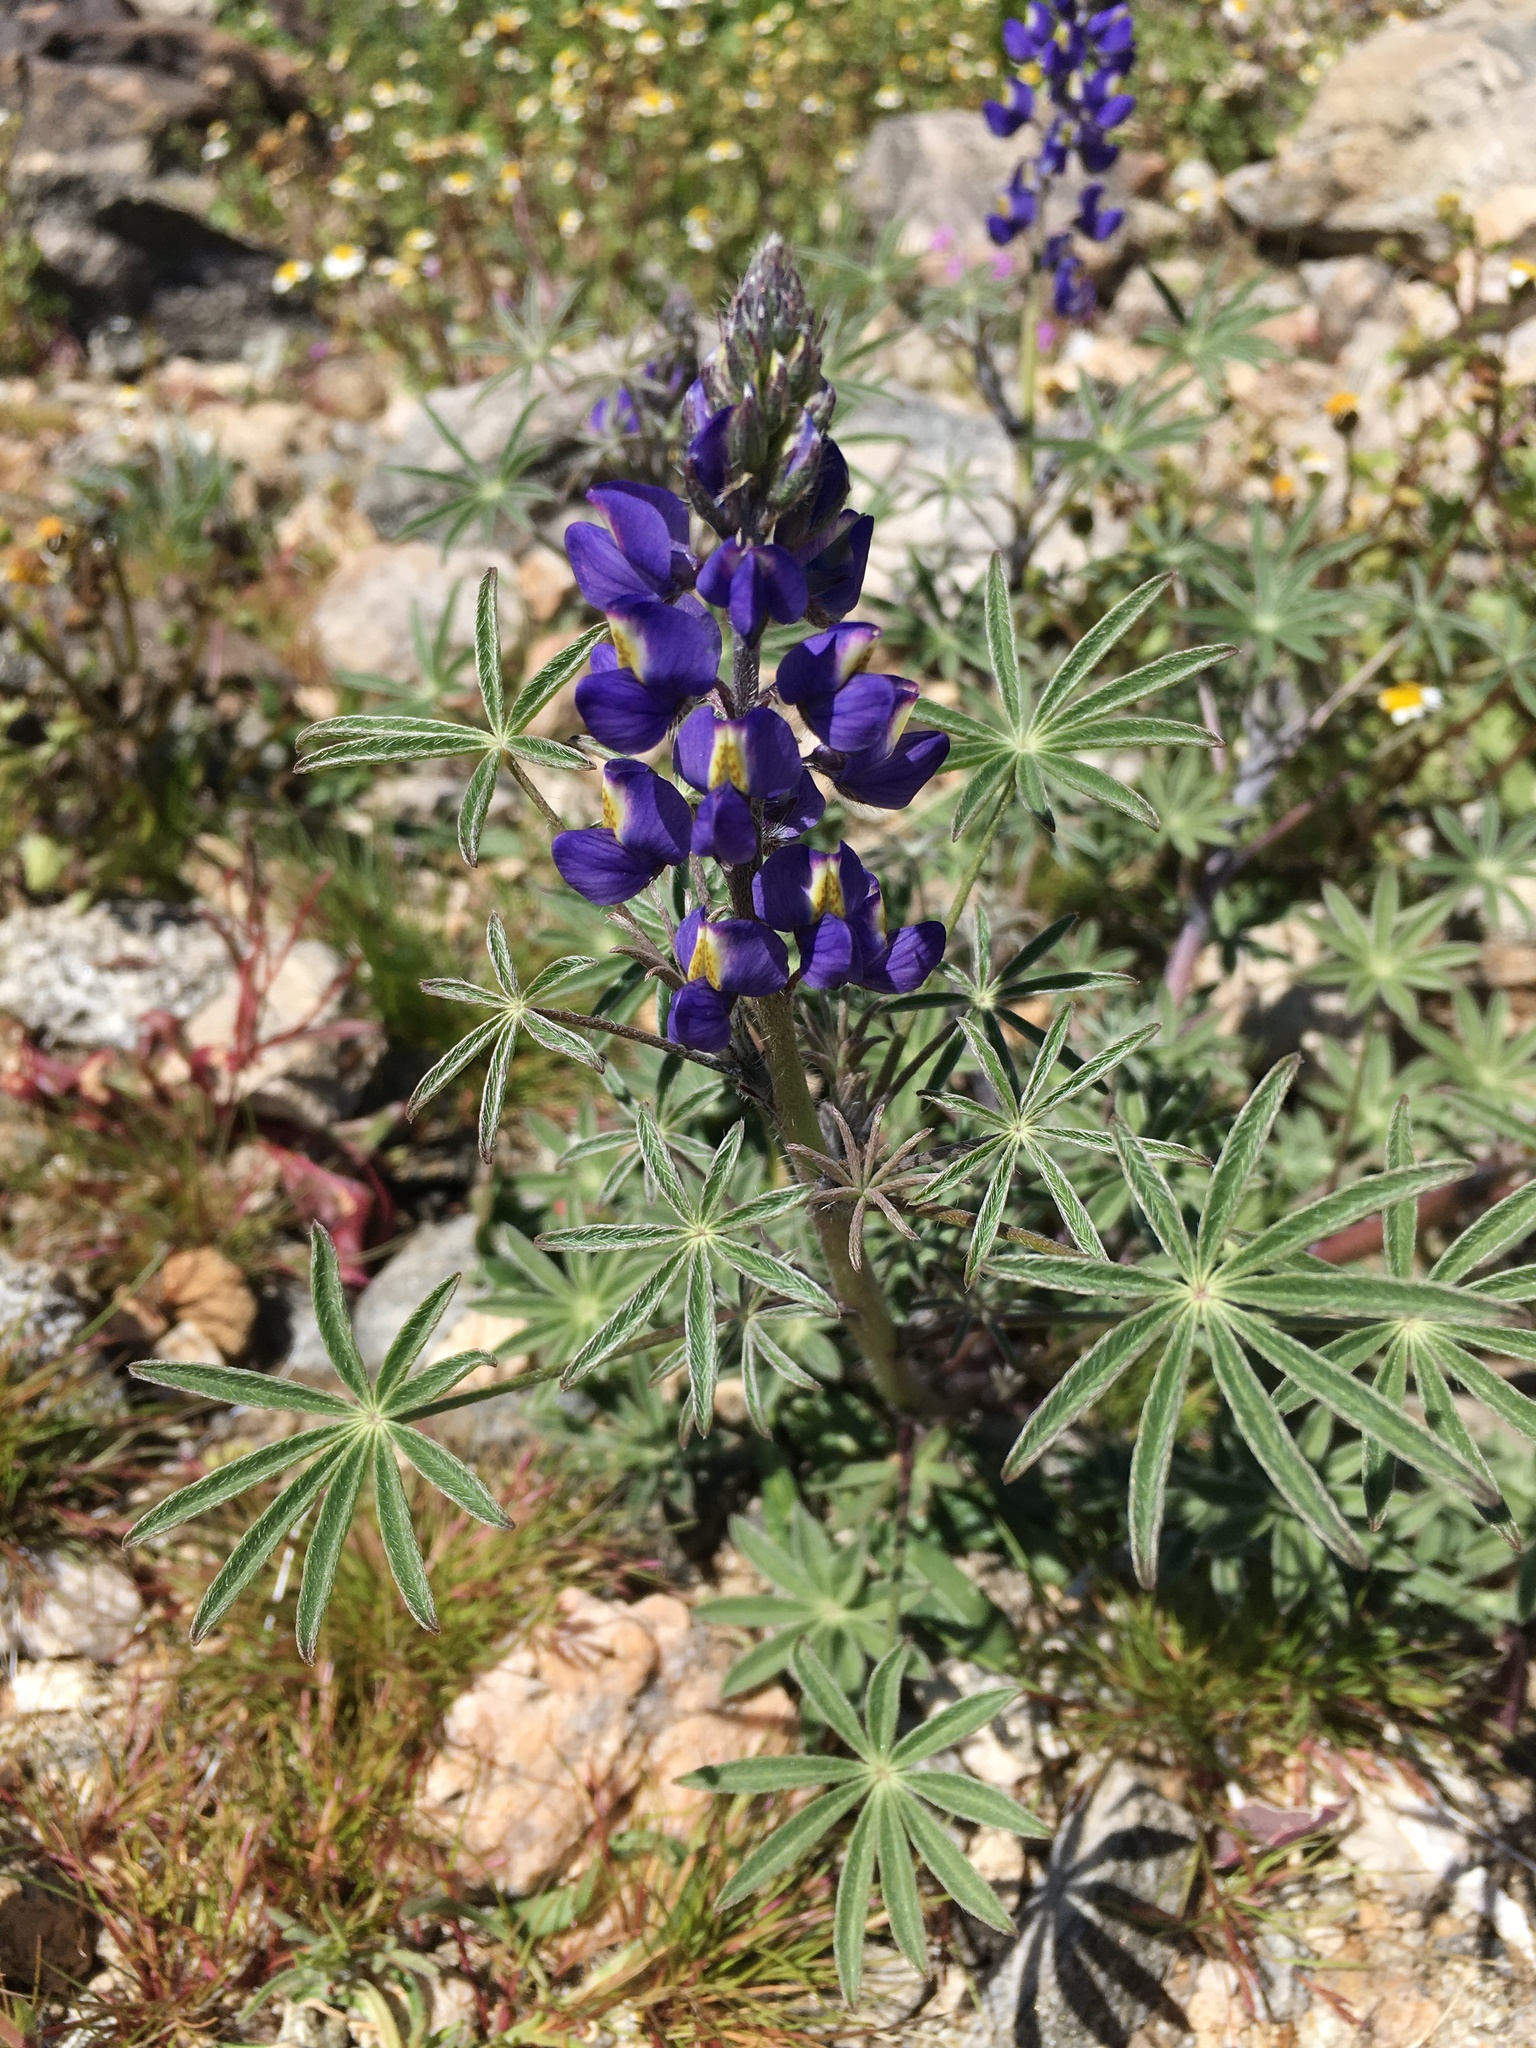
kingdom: Plantae
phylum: Tracheophyta
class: Magnoliopsida
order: Fabales
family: Fabaceae
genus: Lupinus
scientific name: Lupinus sparsiflorus
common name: Coulter's lupine
